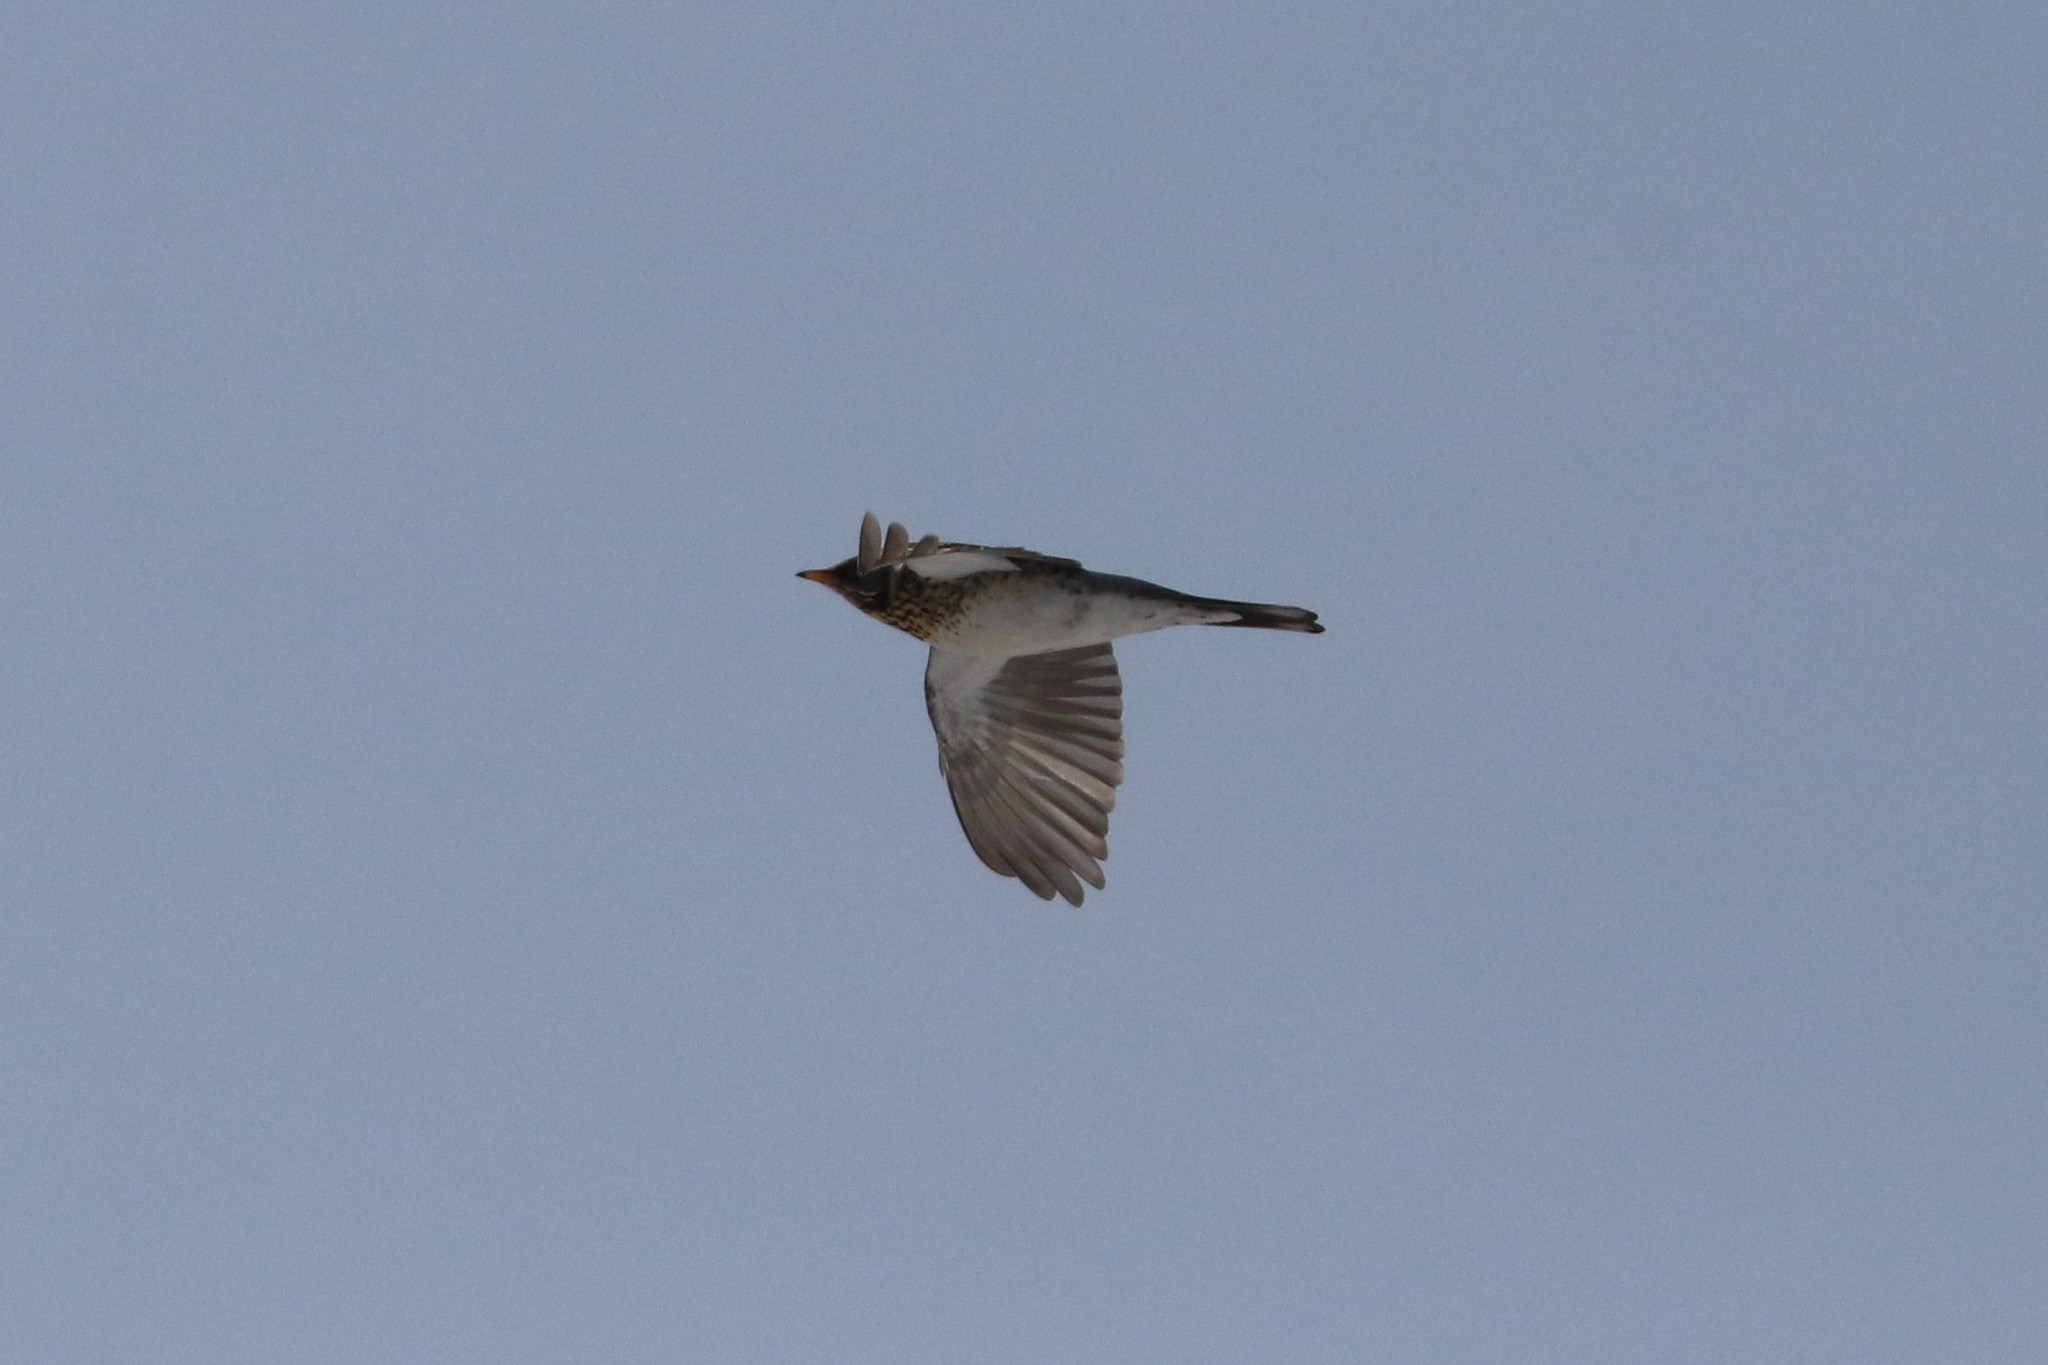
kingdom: Animalia
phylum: Chordata
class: Aves
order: Passeriformes
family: Turdidae
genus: Turdus
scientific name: Turdus pilaris
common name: Fieldfare
